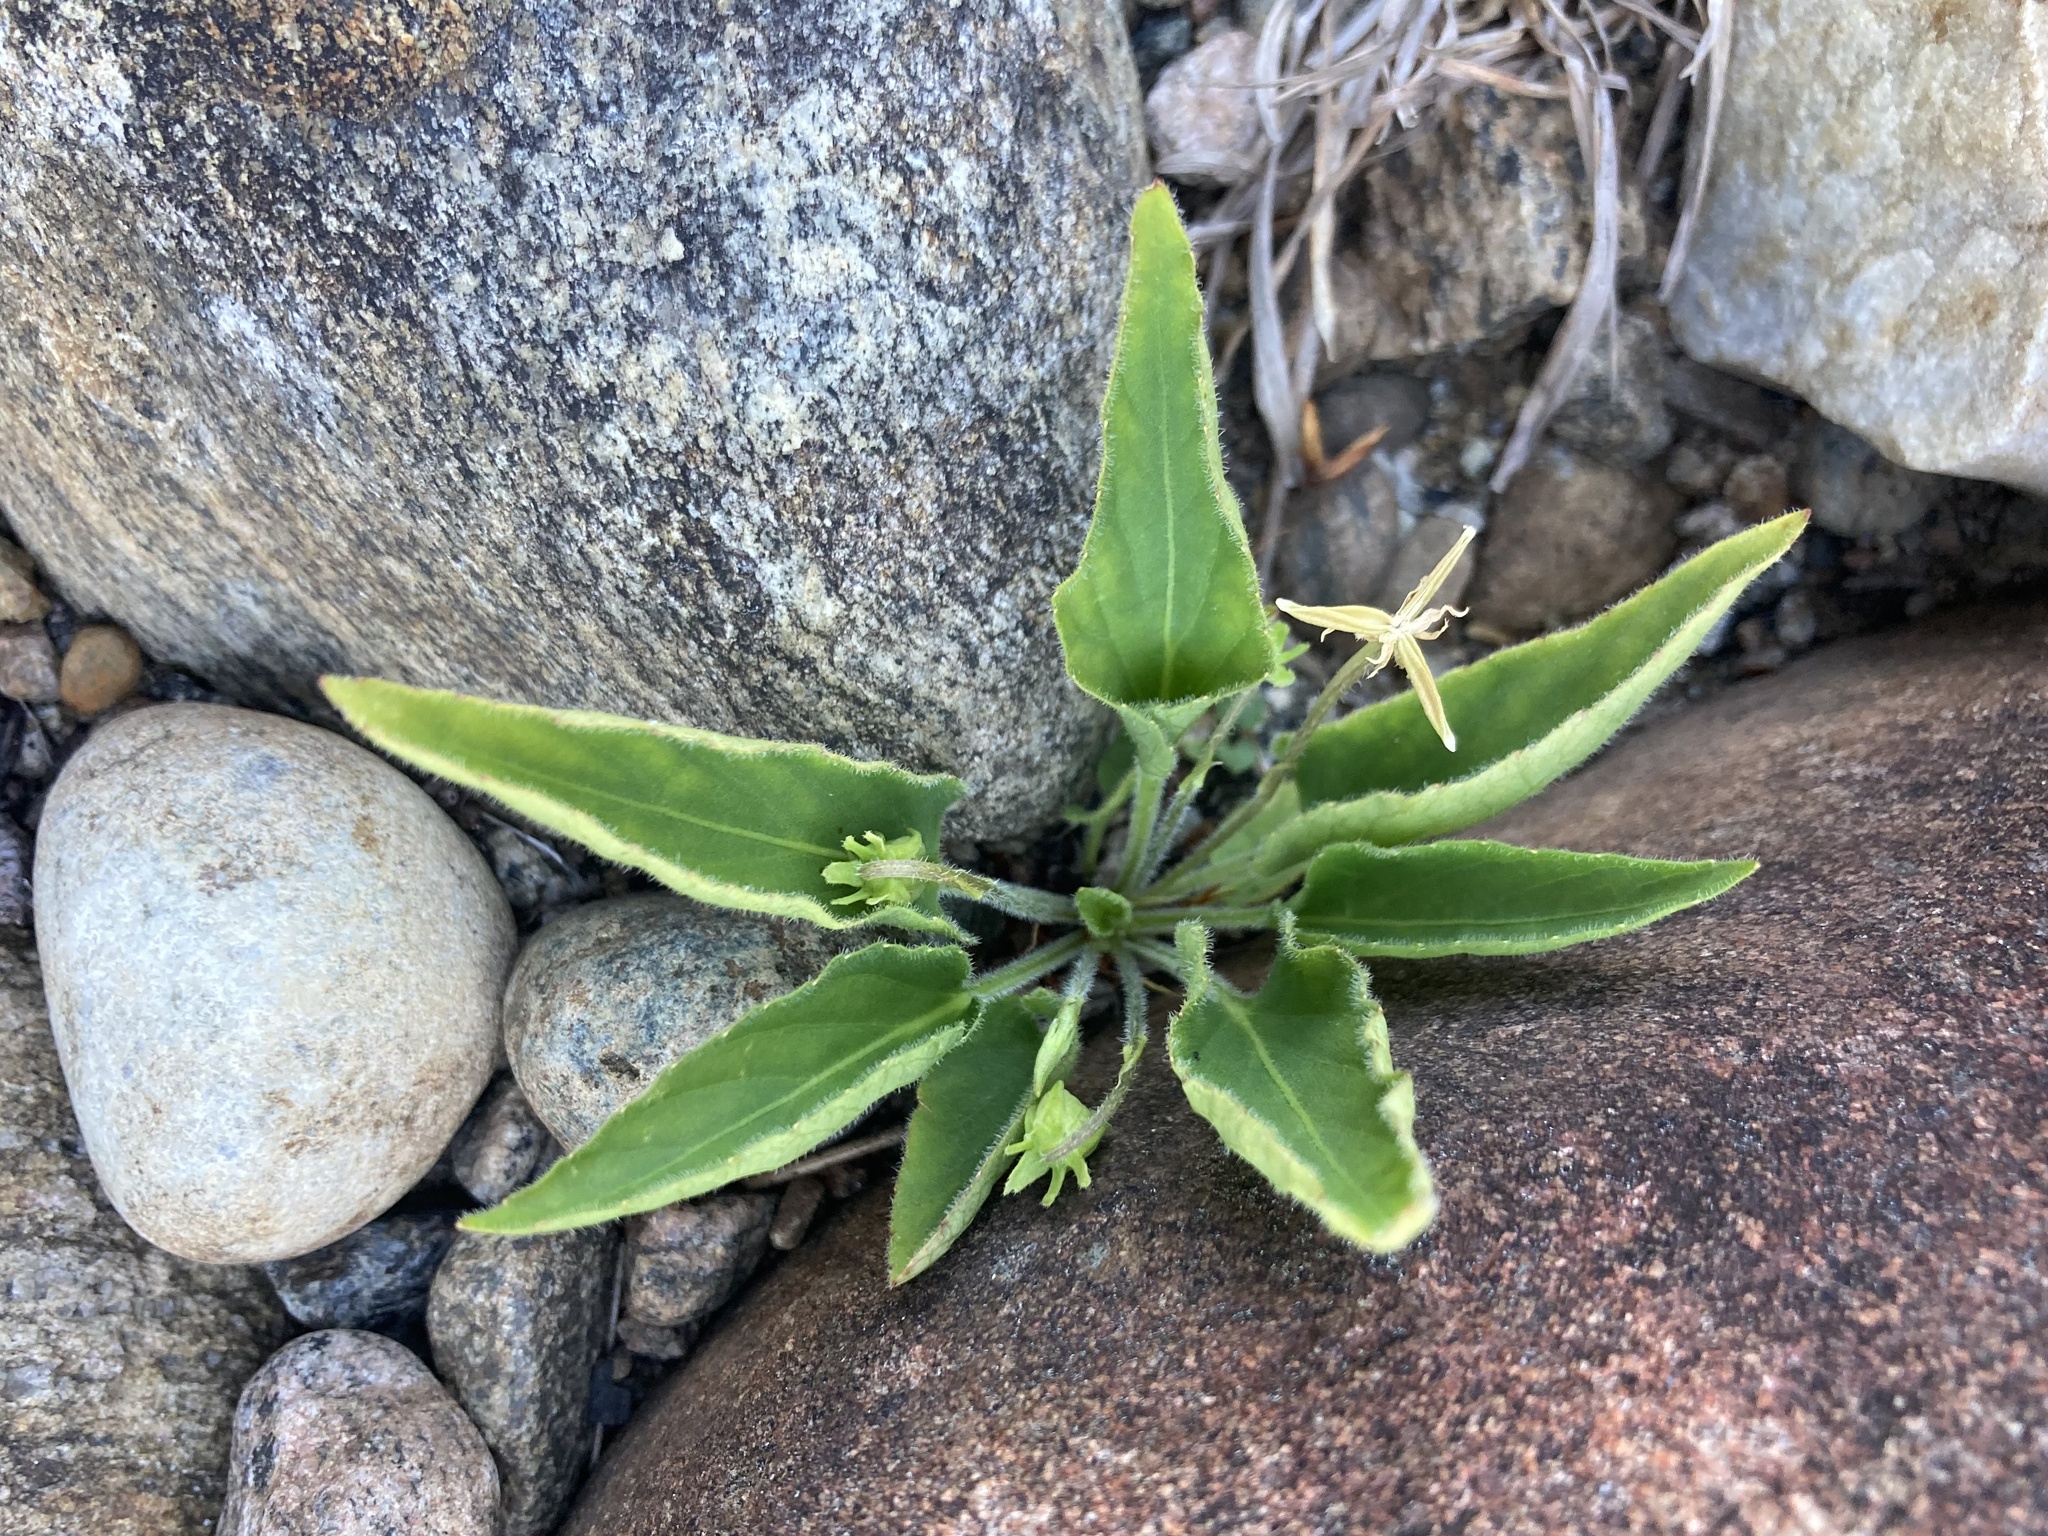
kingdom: Plantae
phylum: Tracheophyta
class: Magnoliopsida
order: Malpighiales
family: Violaceae
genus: Viola
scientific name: Viola fimbriatula
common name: Sand violet
